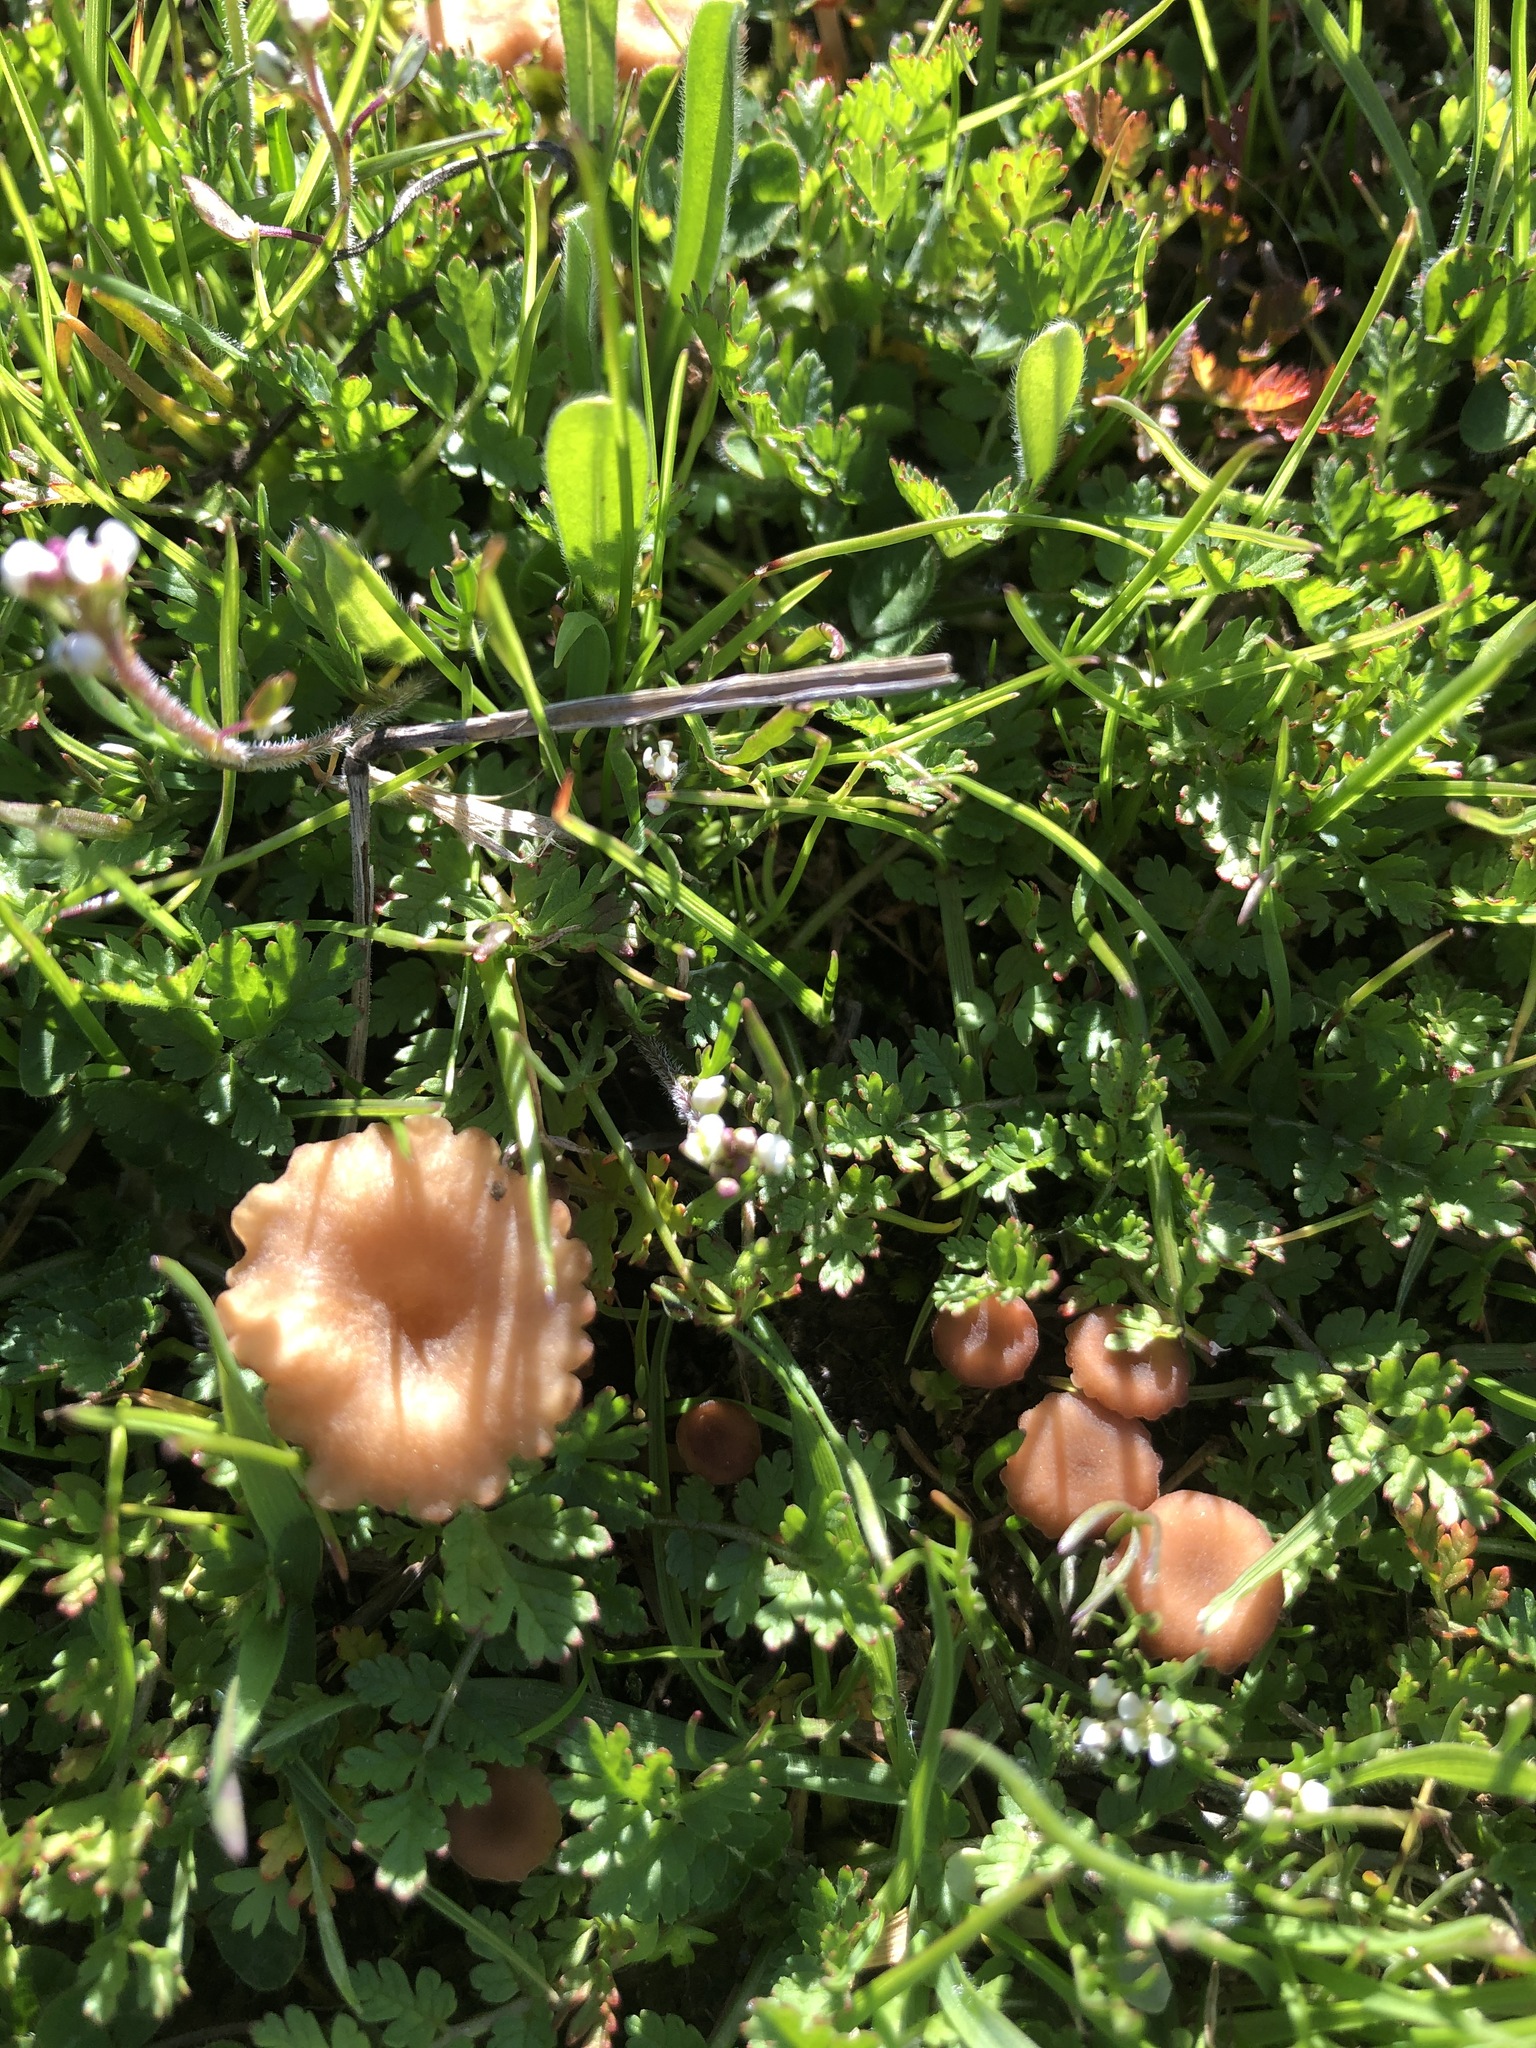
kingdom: Fungi
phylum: Basidiomycota
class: Agaricomycetes
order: Hymenochaetales
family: Rickenellaceae
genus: Contumyces
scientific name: Contumyces rosellus
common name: Rosy navel
